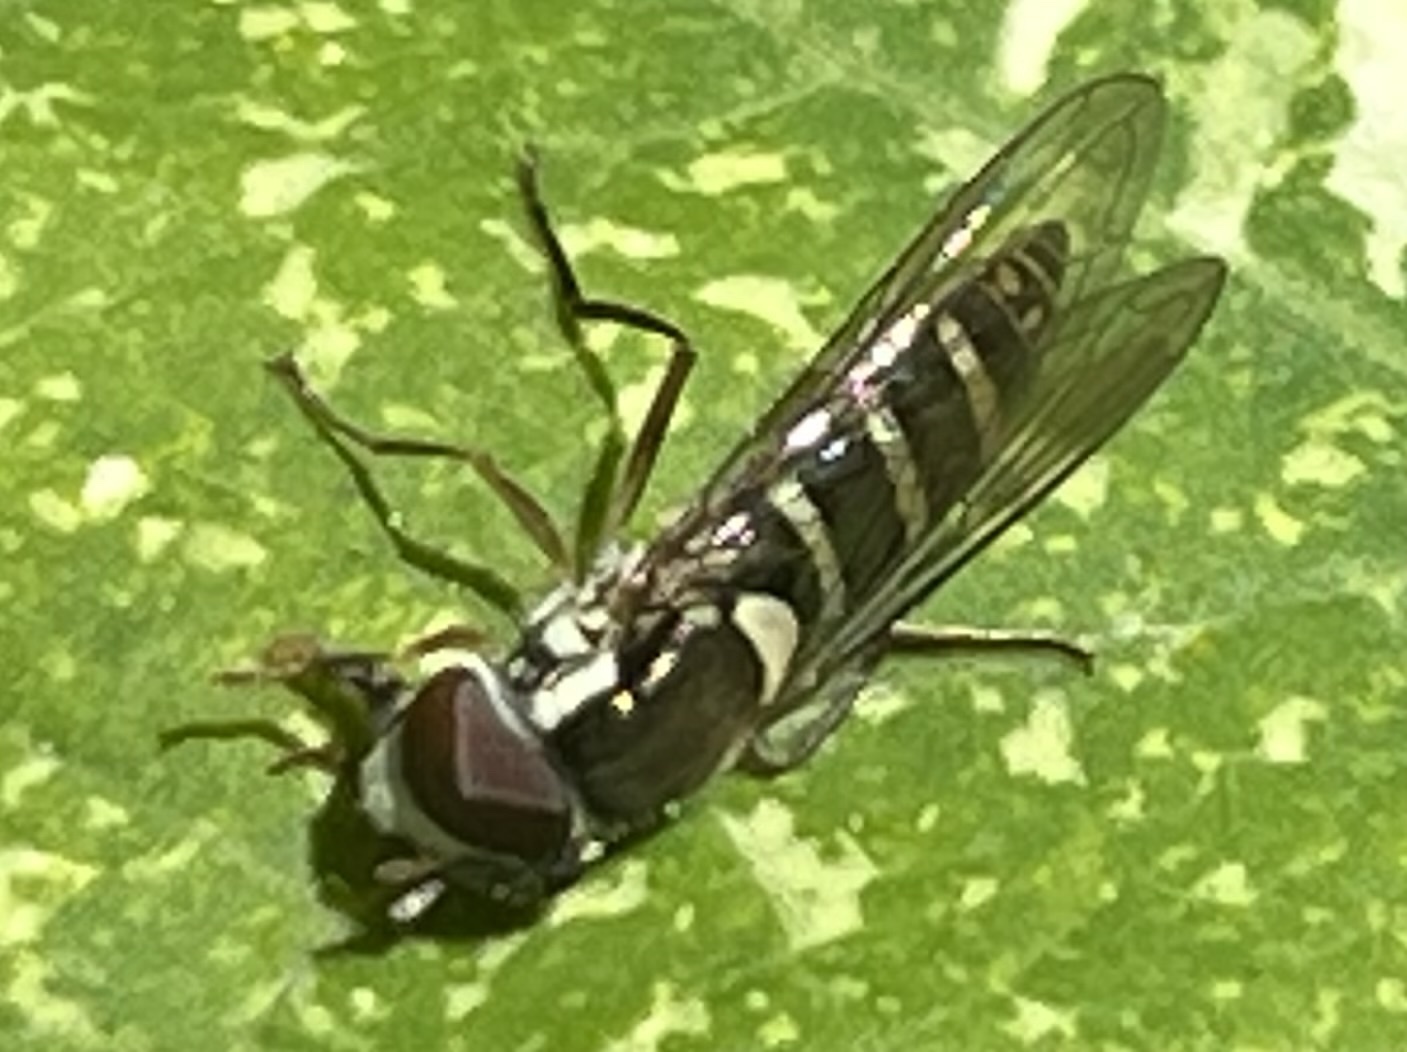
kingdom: Animalia
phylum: Arthropoda
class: Insecta
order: Diptera
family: Syrphidae
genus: Fazia
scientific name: Fazia micrura
